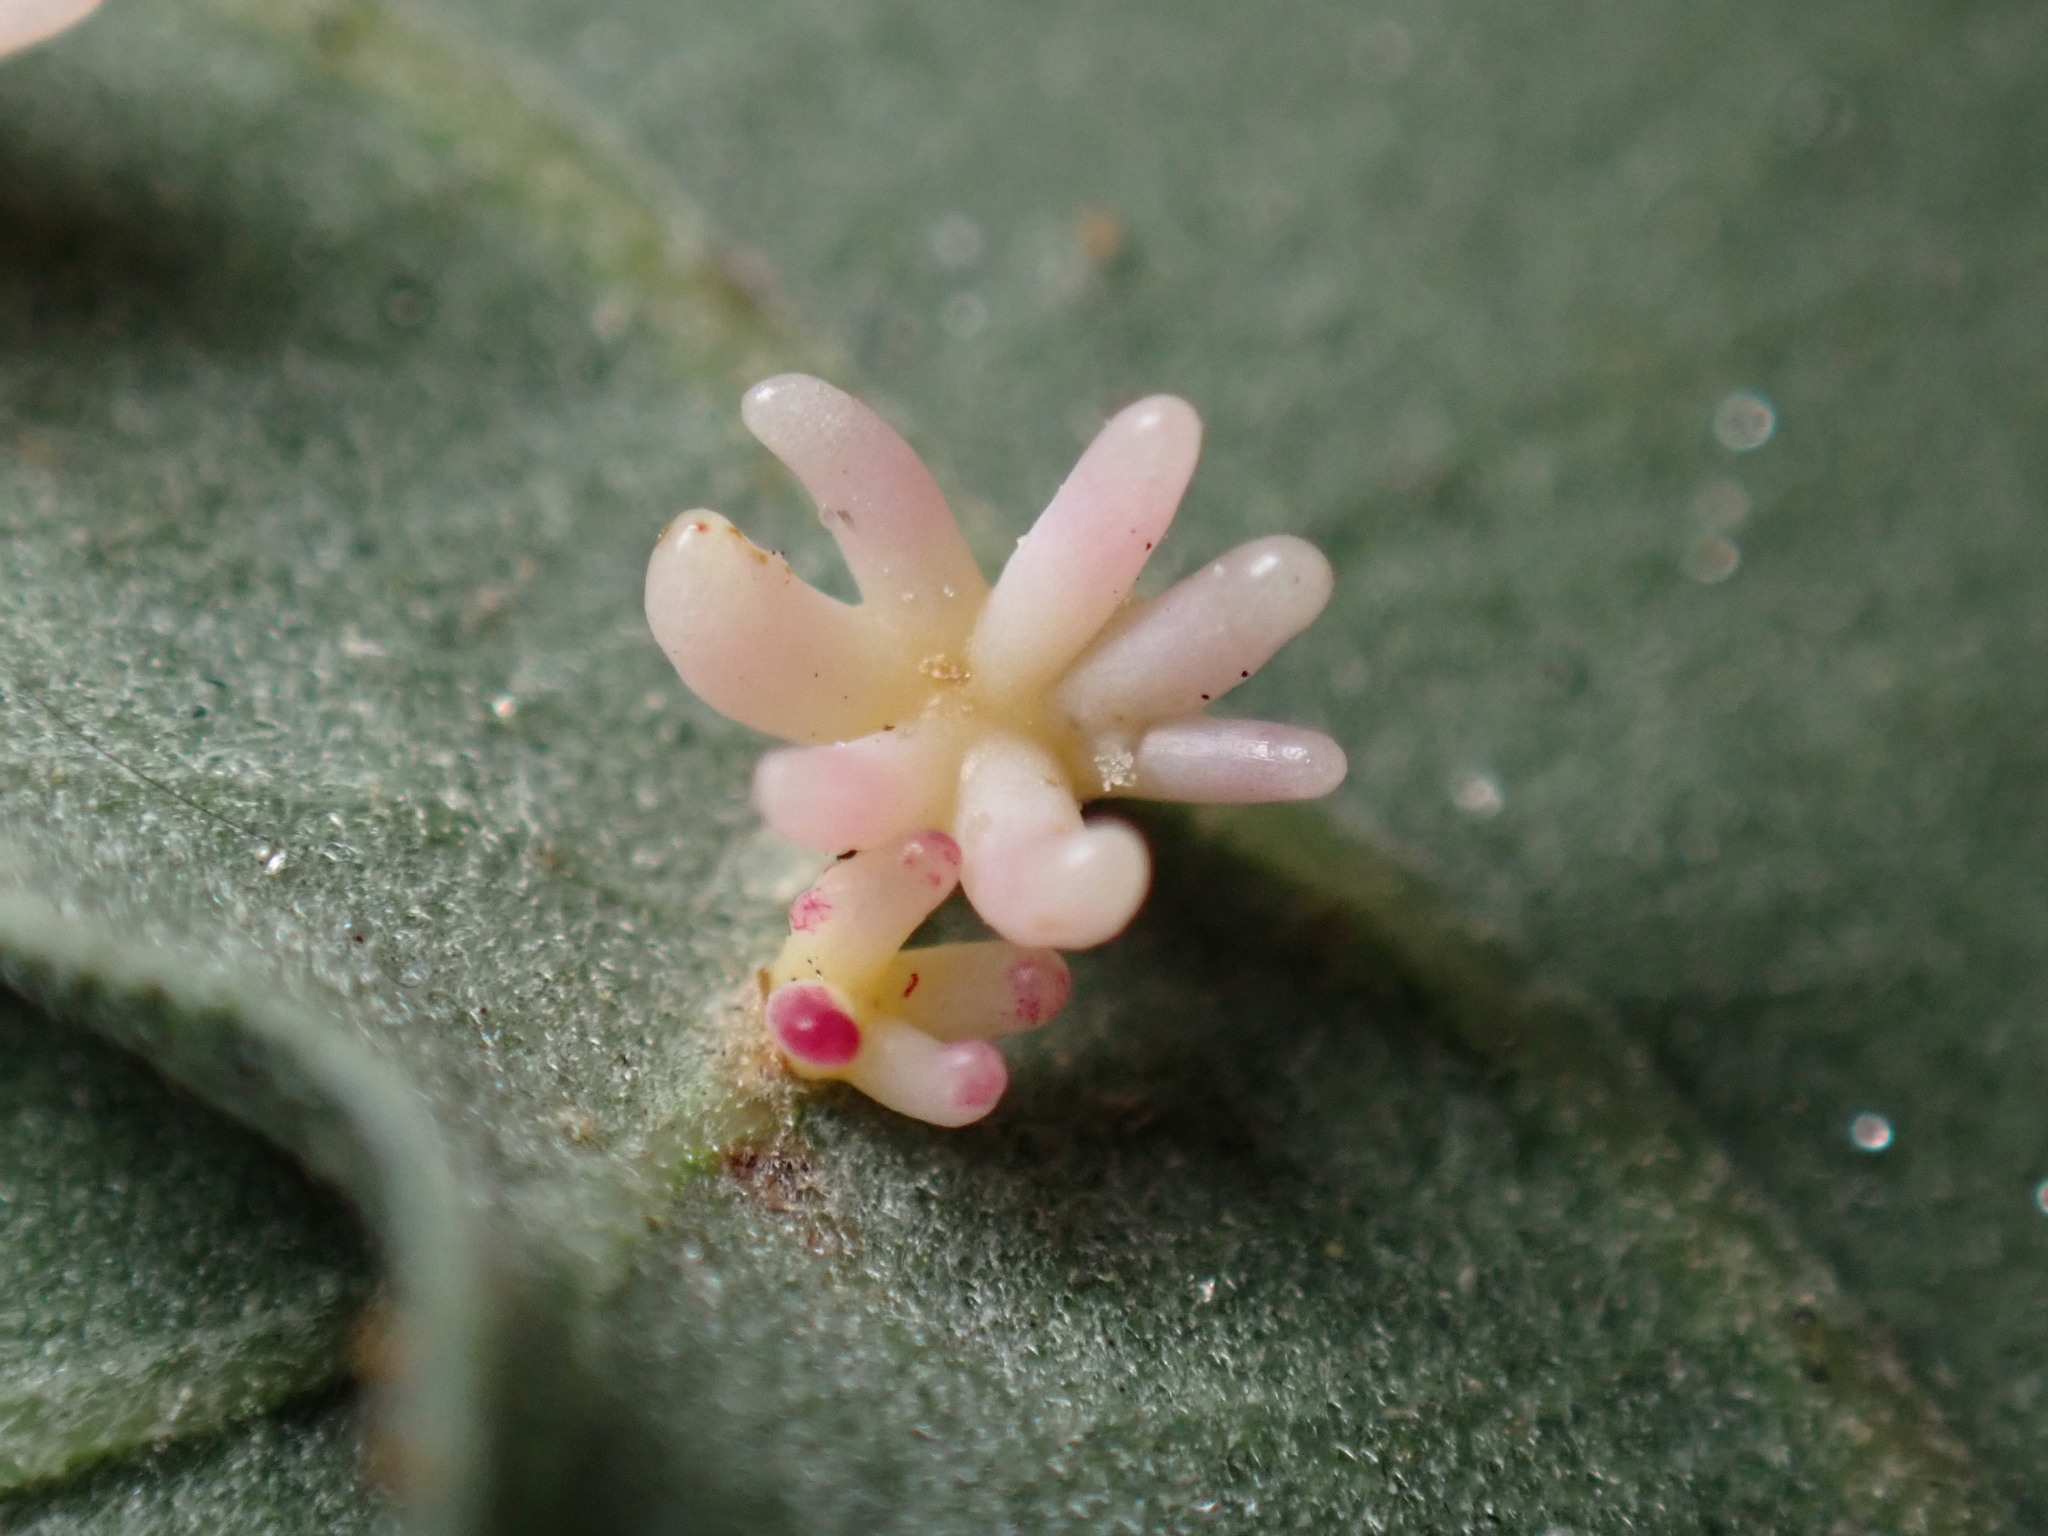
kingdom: Animalia
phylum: Arthropoda
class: Insecta
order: Hymenoptera
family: Cynipidae
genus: Cynips
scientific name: Cynips douglasi
